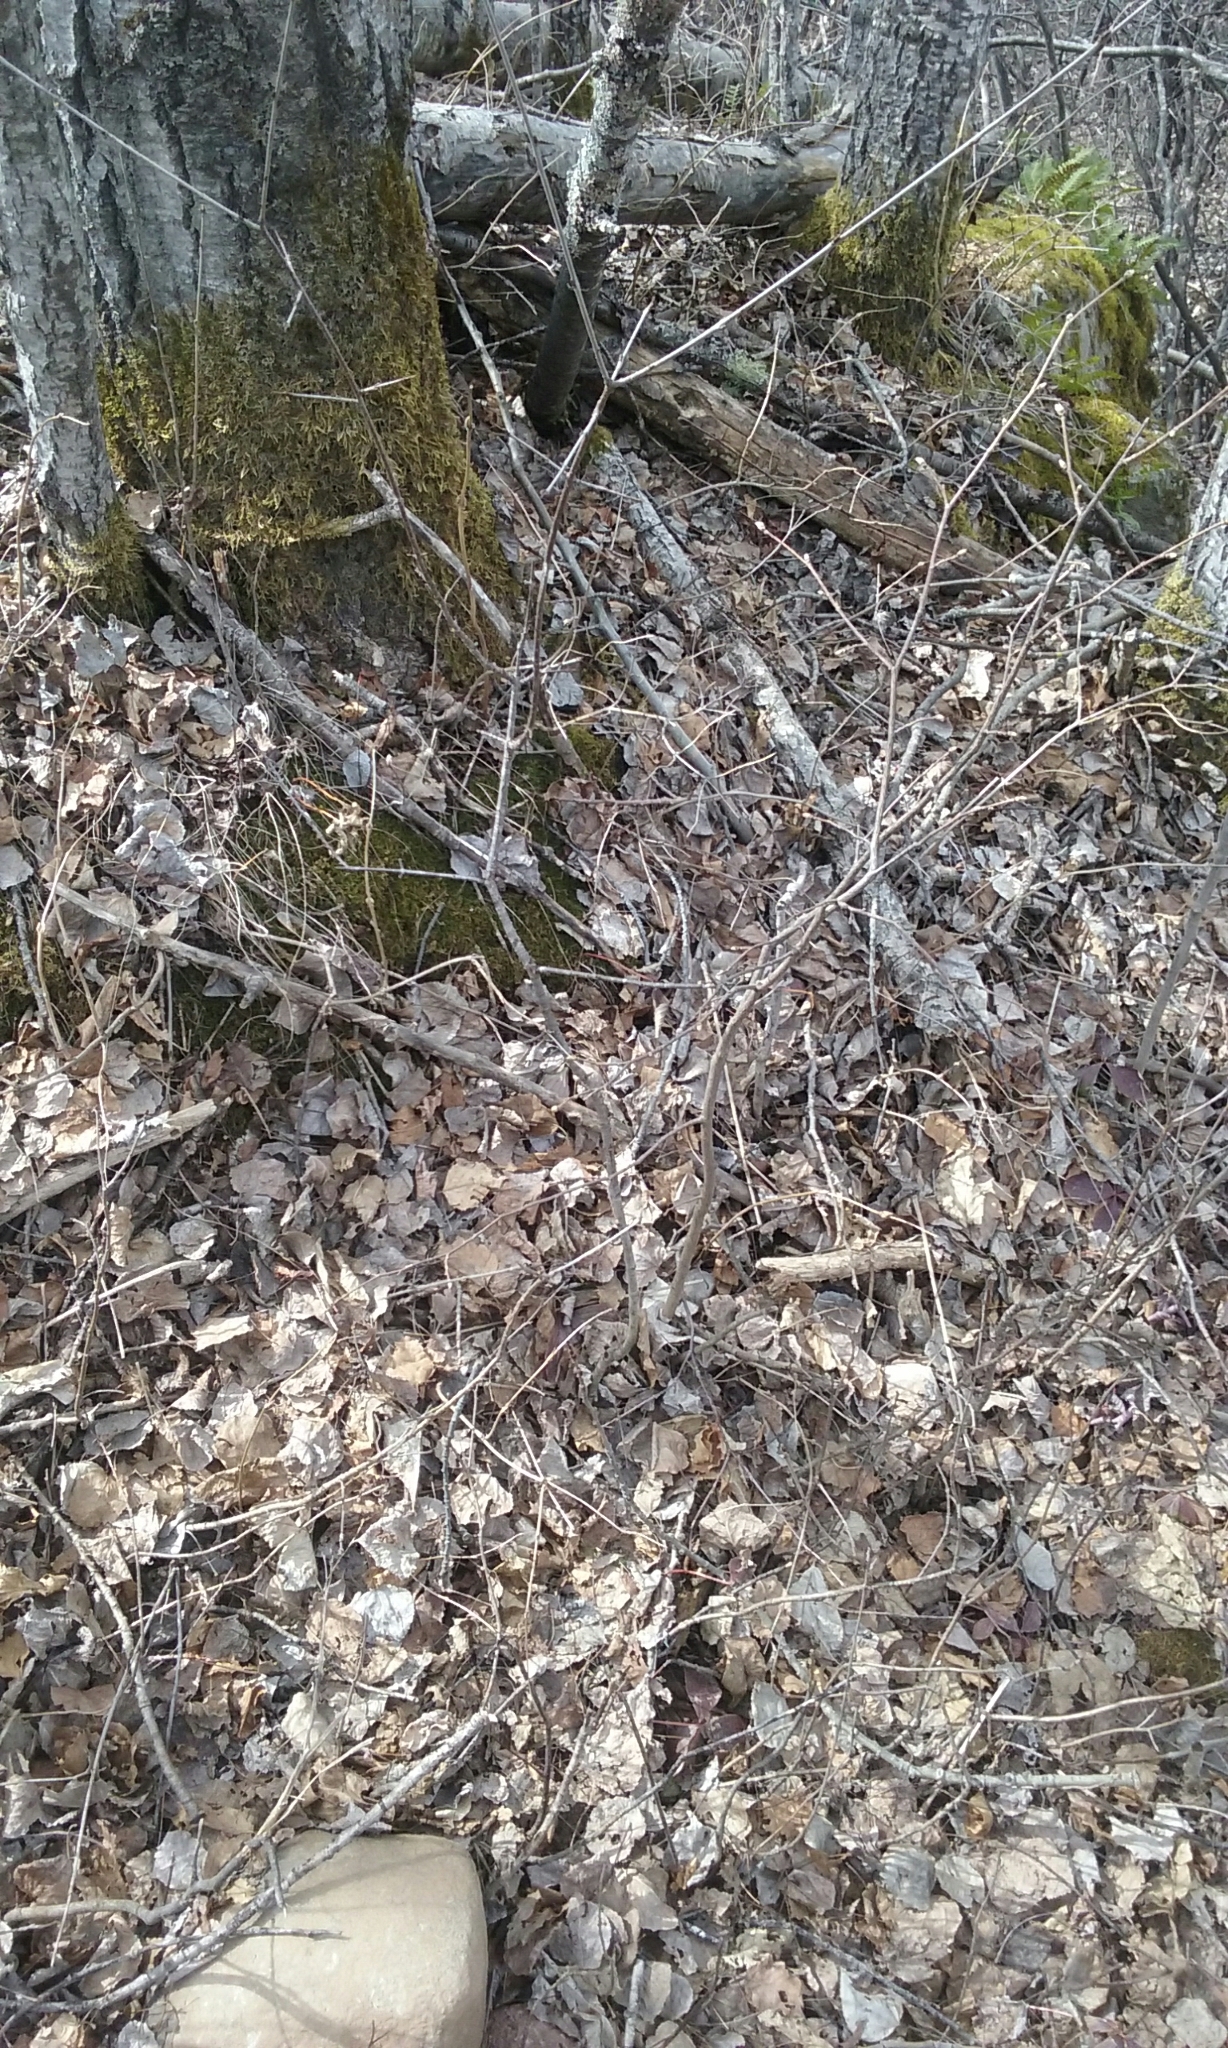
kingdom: Plantae
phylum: Tracheophyta
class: Magnoliopsida
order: Rosales
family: Rhamnaceae
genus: Rhamnus
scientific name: Rhamnus cathartica
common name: Common buckthorn
